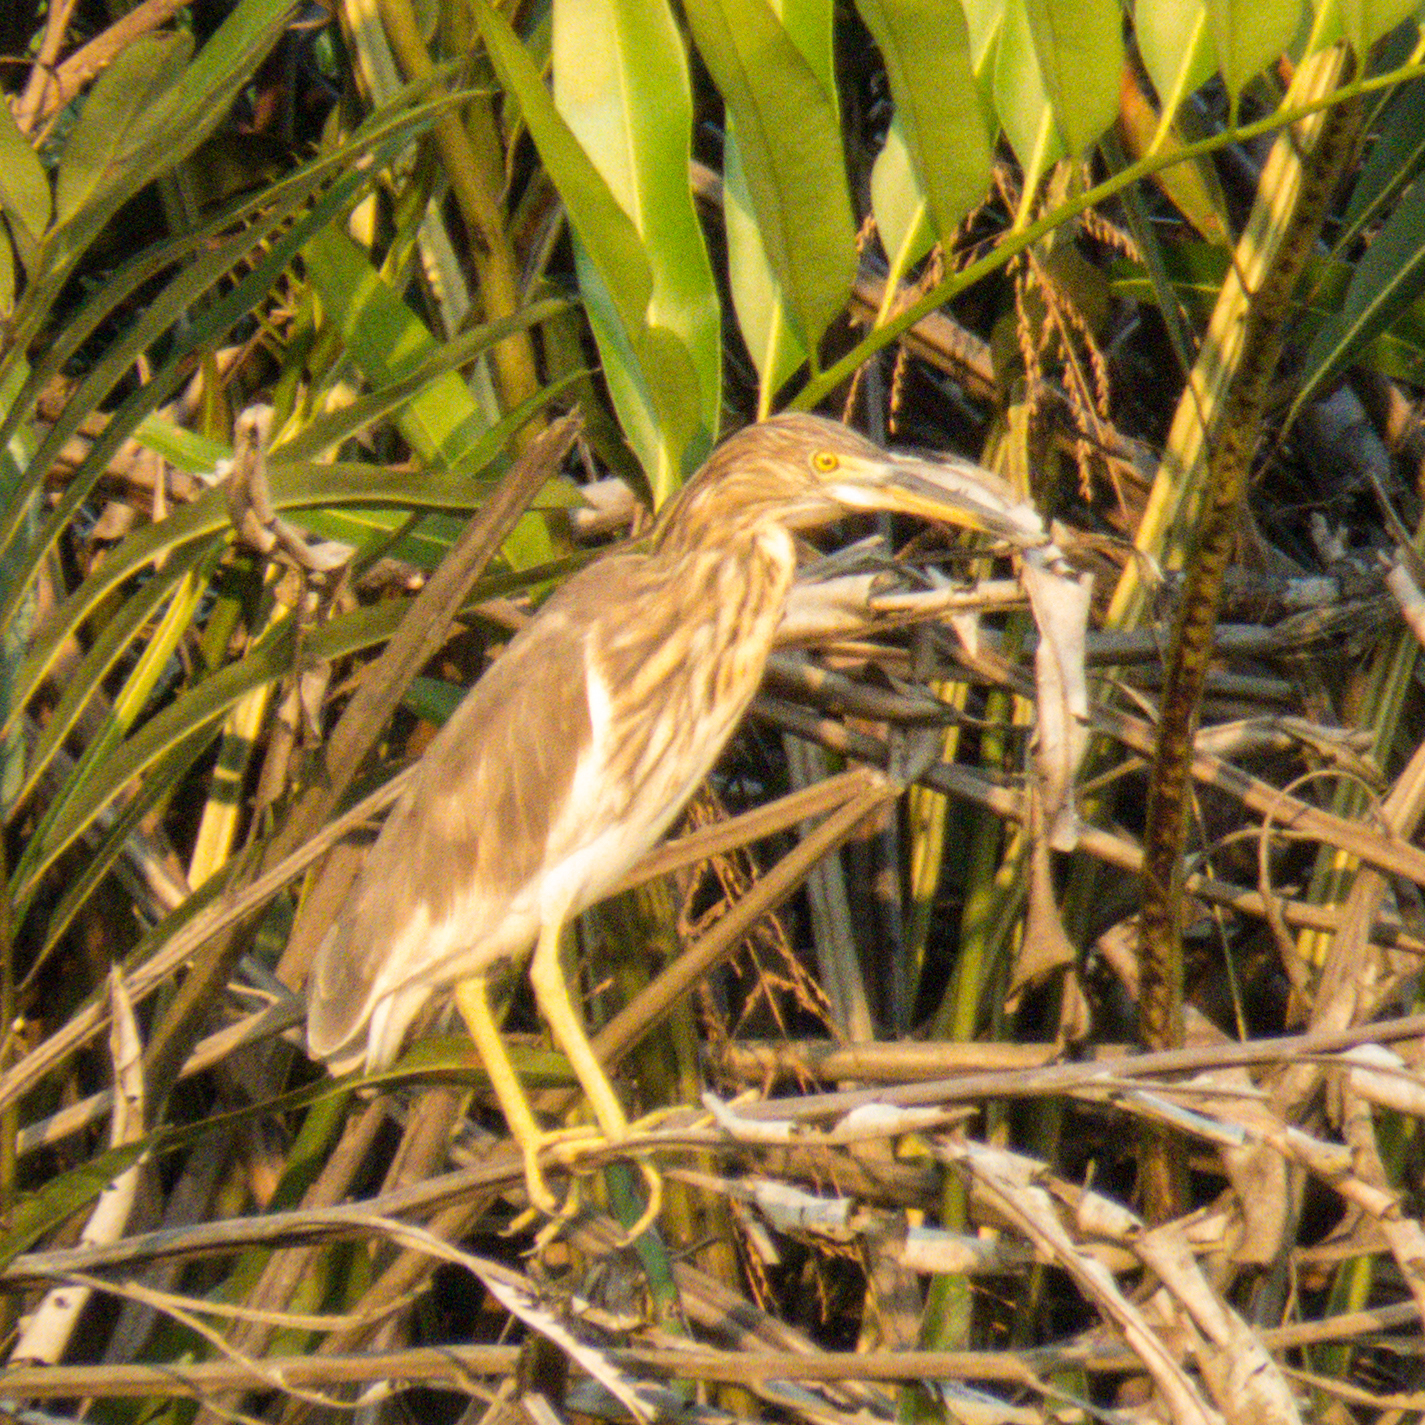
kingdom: Animalia
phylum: Chordata
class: Aves
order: Pelecaniformes
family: Ardeidae
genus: Ardeola
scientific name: Ardeola
